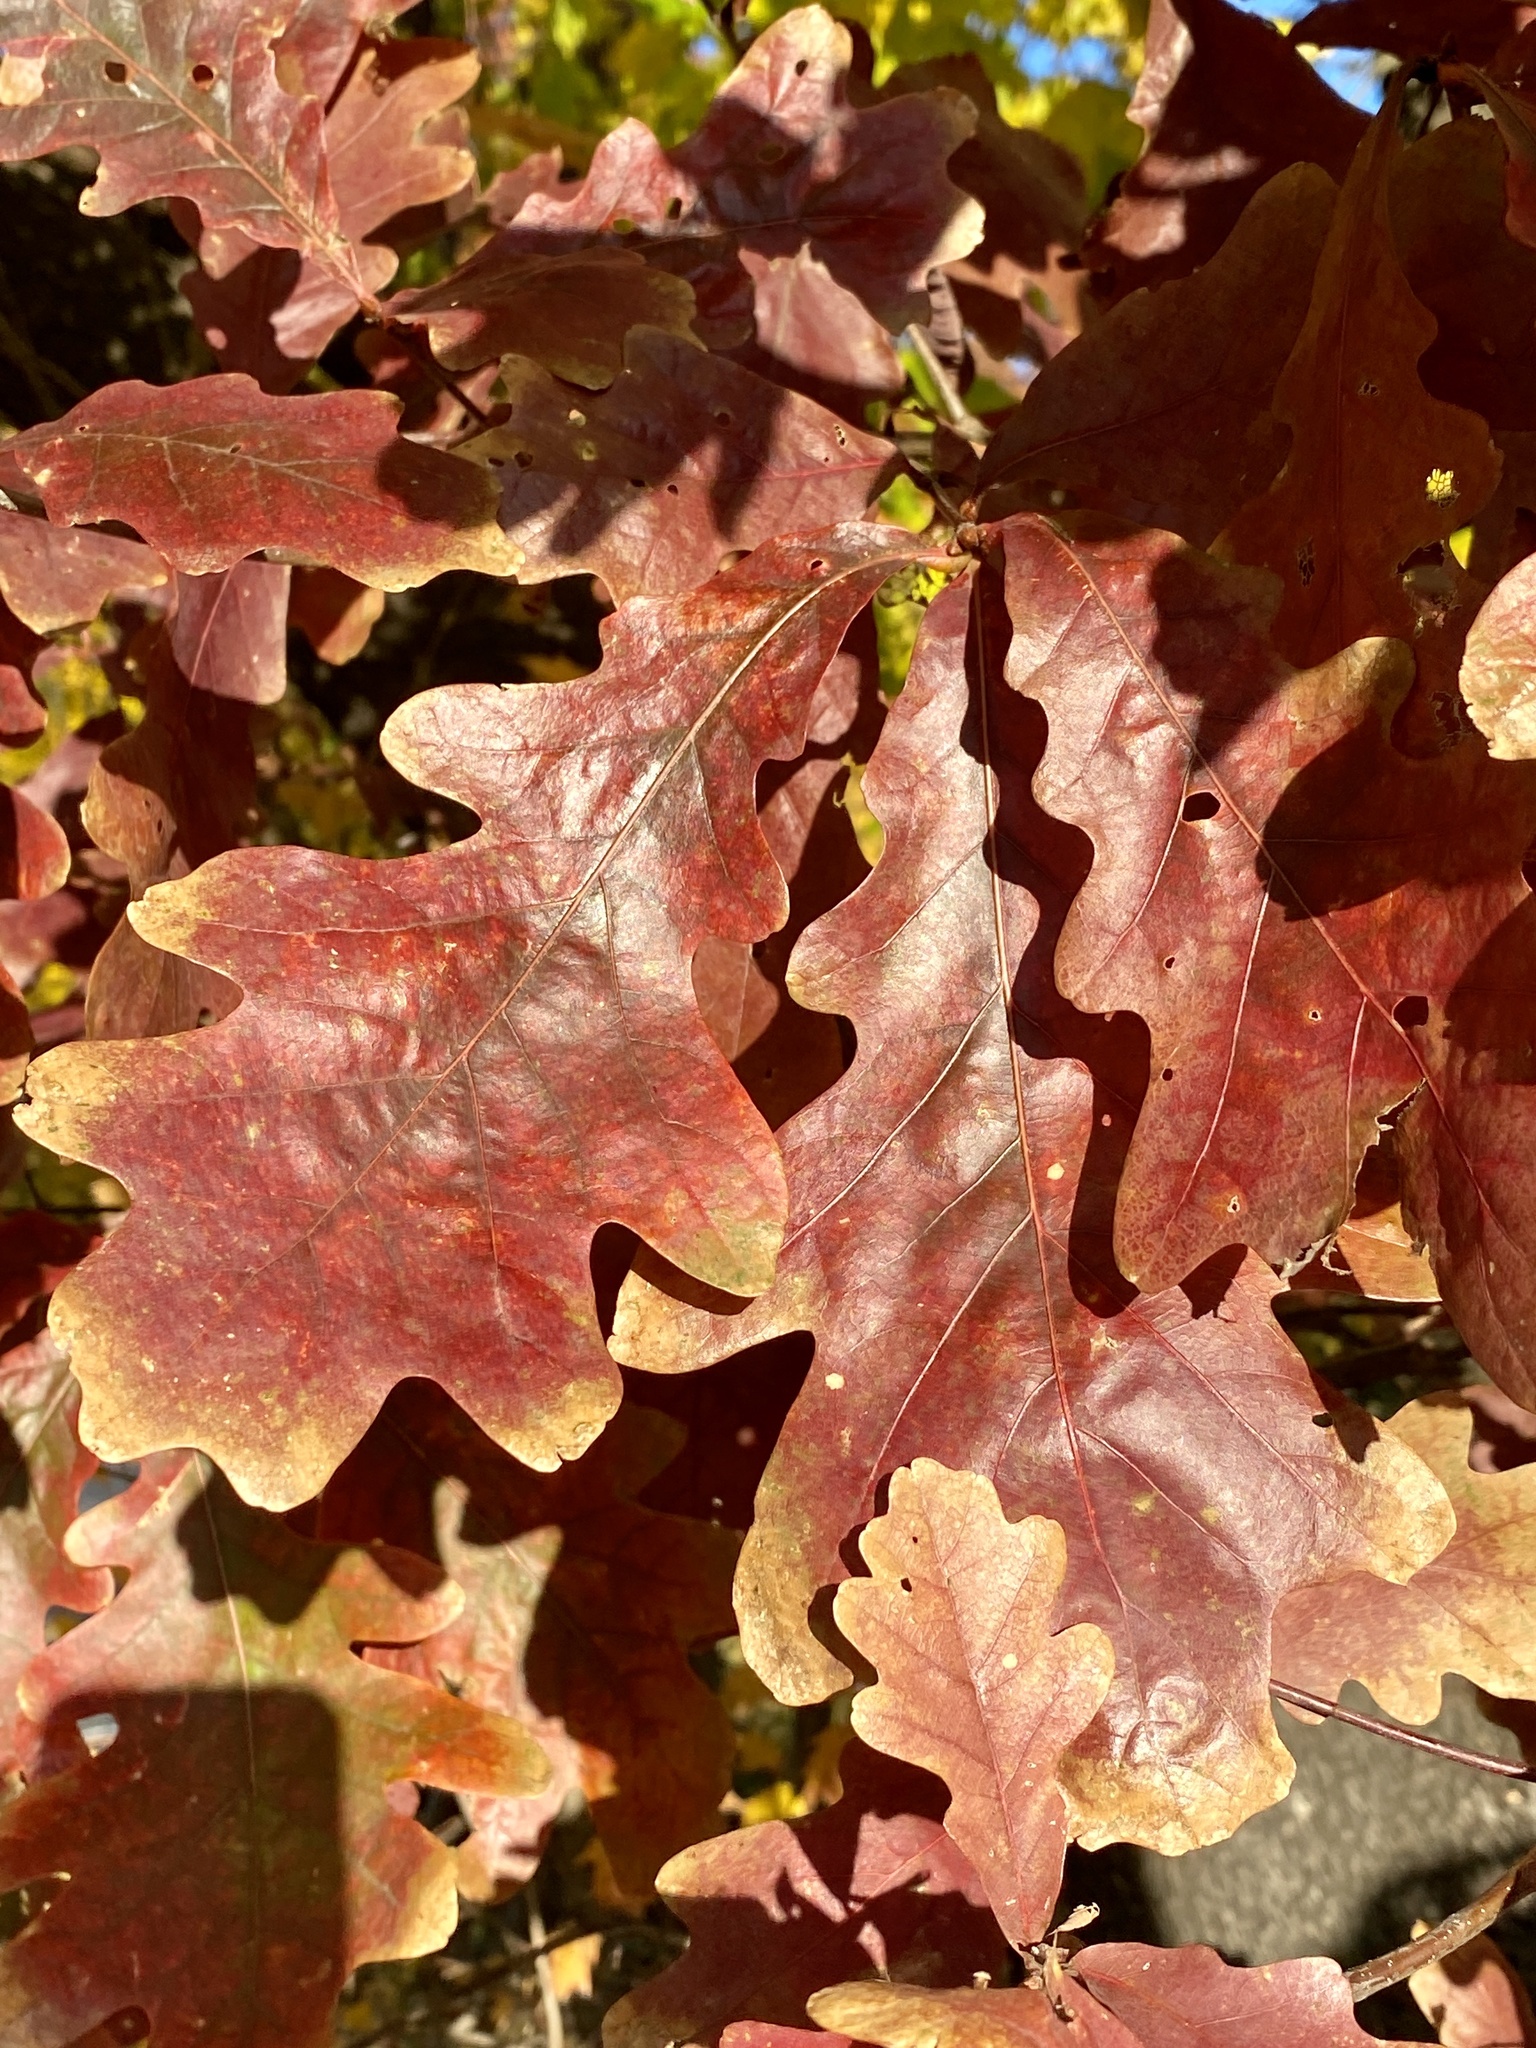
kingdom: Plantae
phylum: Tracheophyta
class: Magnoliopsida
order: Fagales
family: Fagaceae
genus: Quercus
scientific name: Quercus alba
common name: White oak
